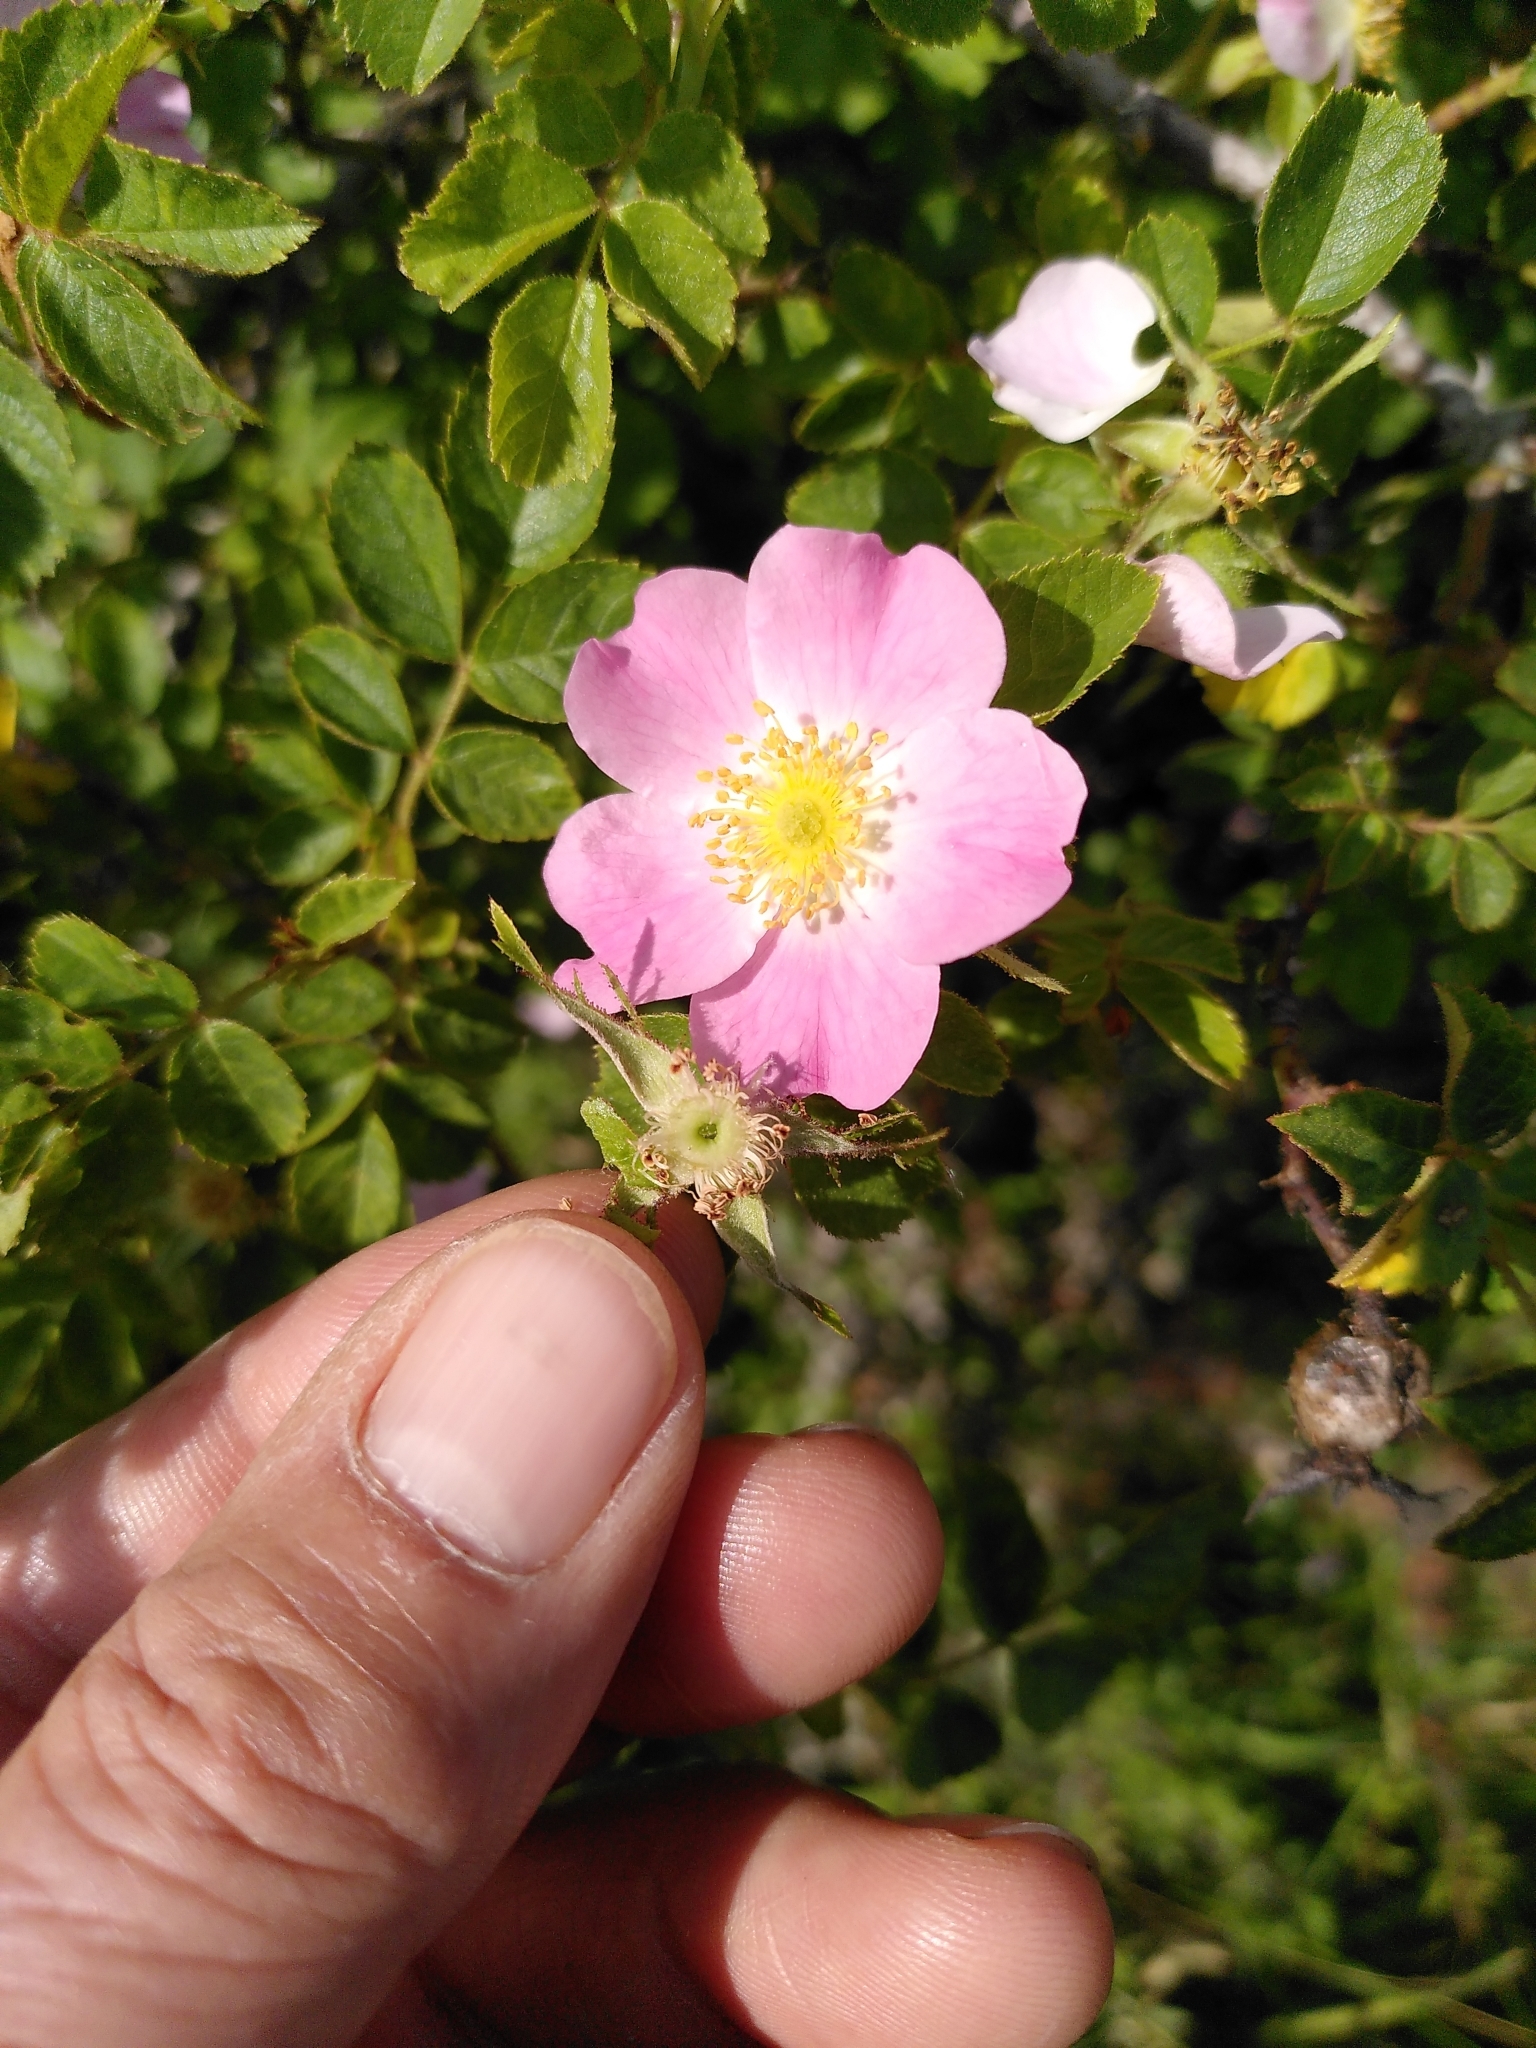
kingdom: Plantae
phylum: Tracheophyta
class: Magnoliopsida
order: Rosales
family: Rosaceae
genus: Rosa
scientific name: Rosa rubiginosa
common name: Sweet-briar
